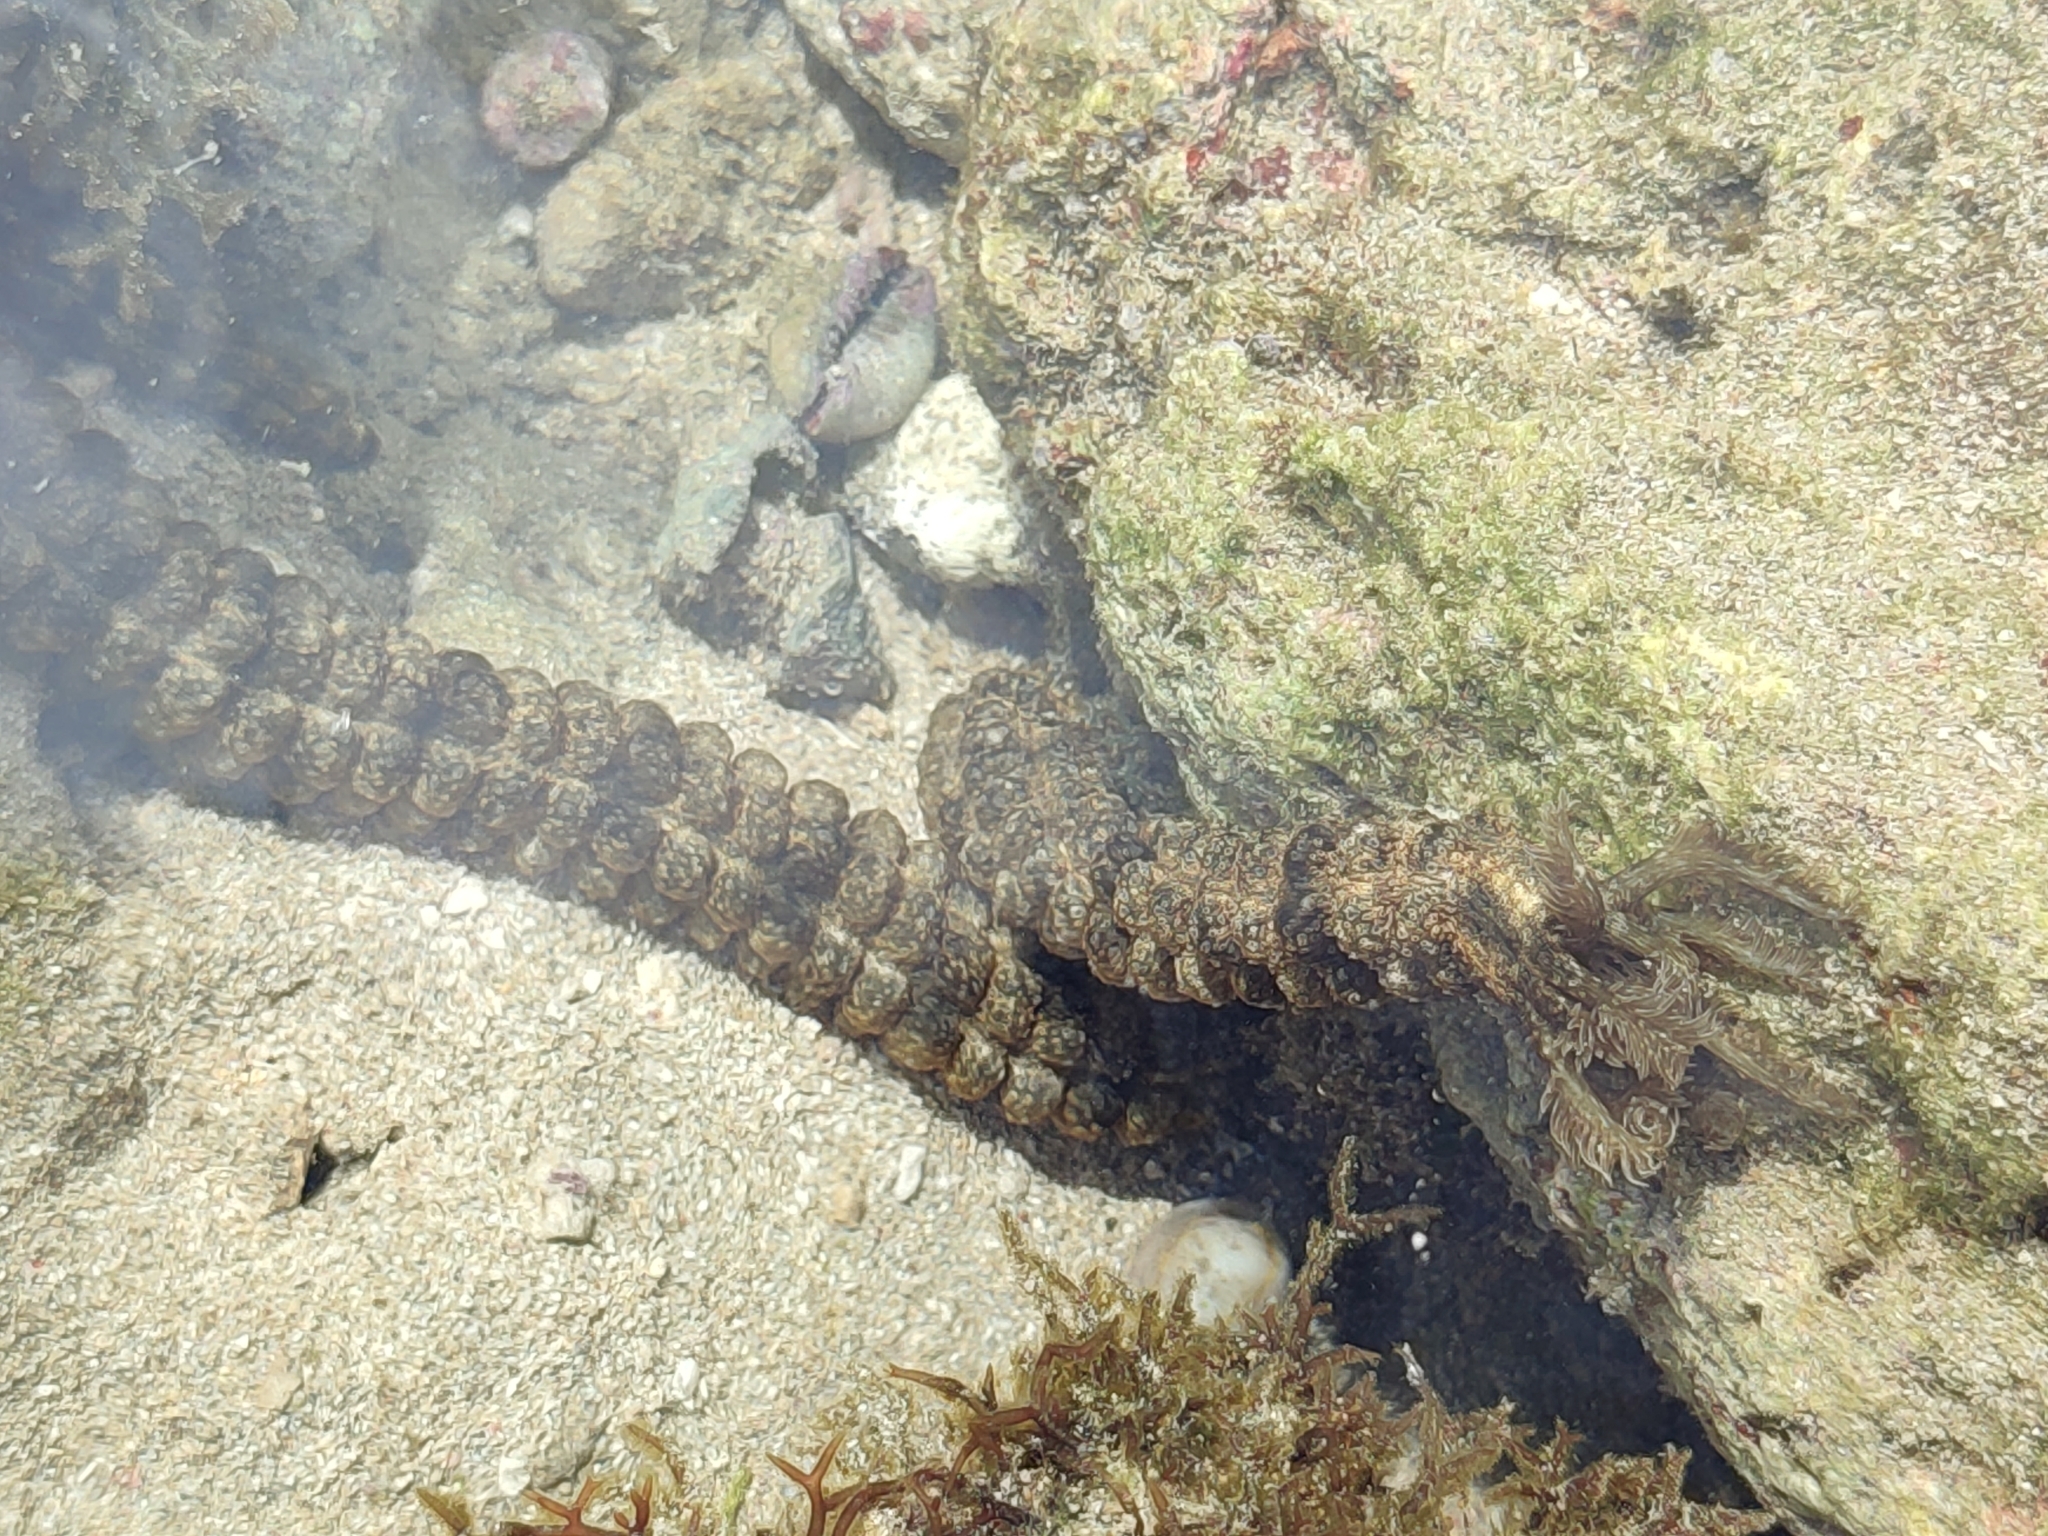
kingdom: Animalia
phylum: Echinodermata
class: Holothuroidea
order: Apodida
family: Synaptidae
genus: Synapta
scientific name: Synapta maculata
